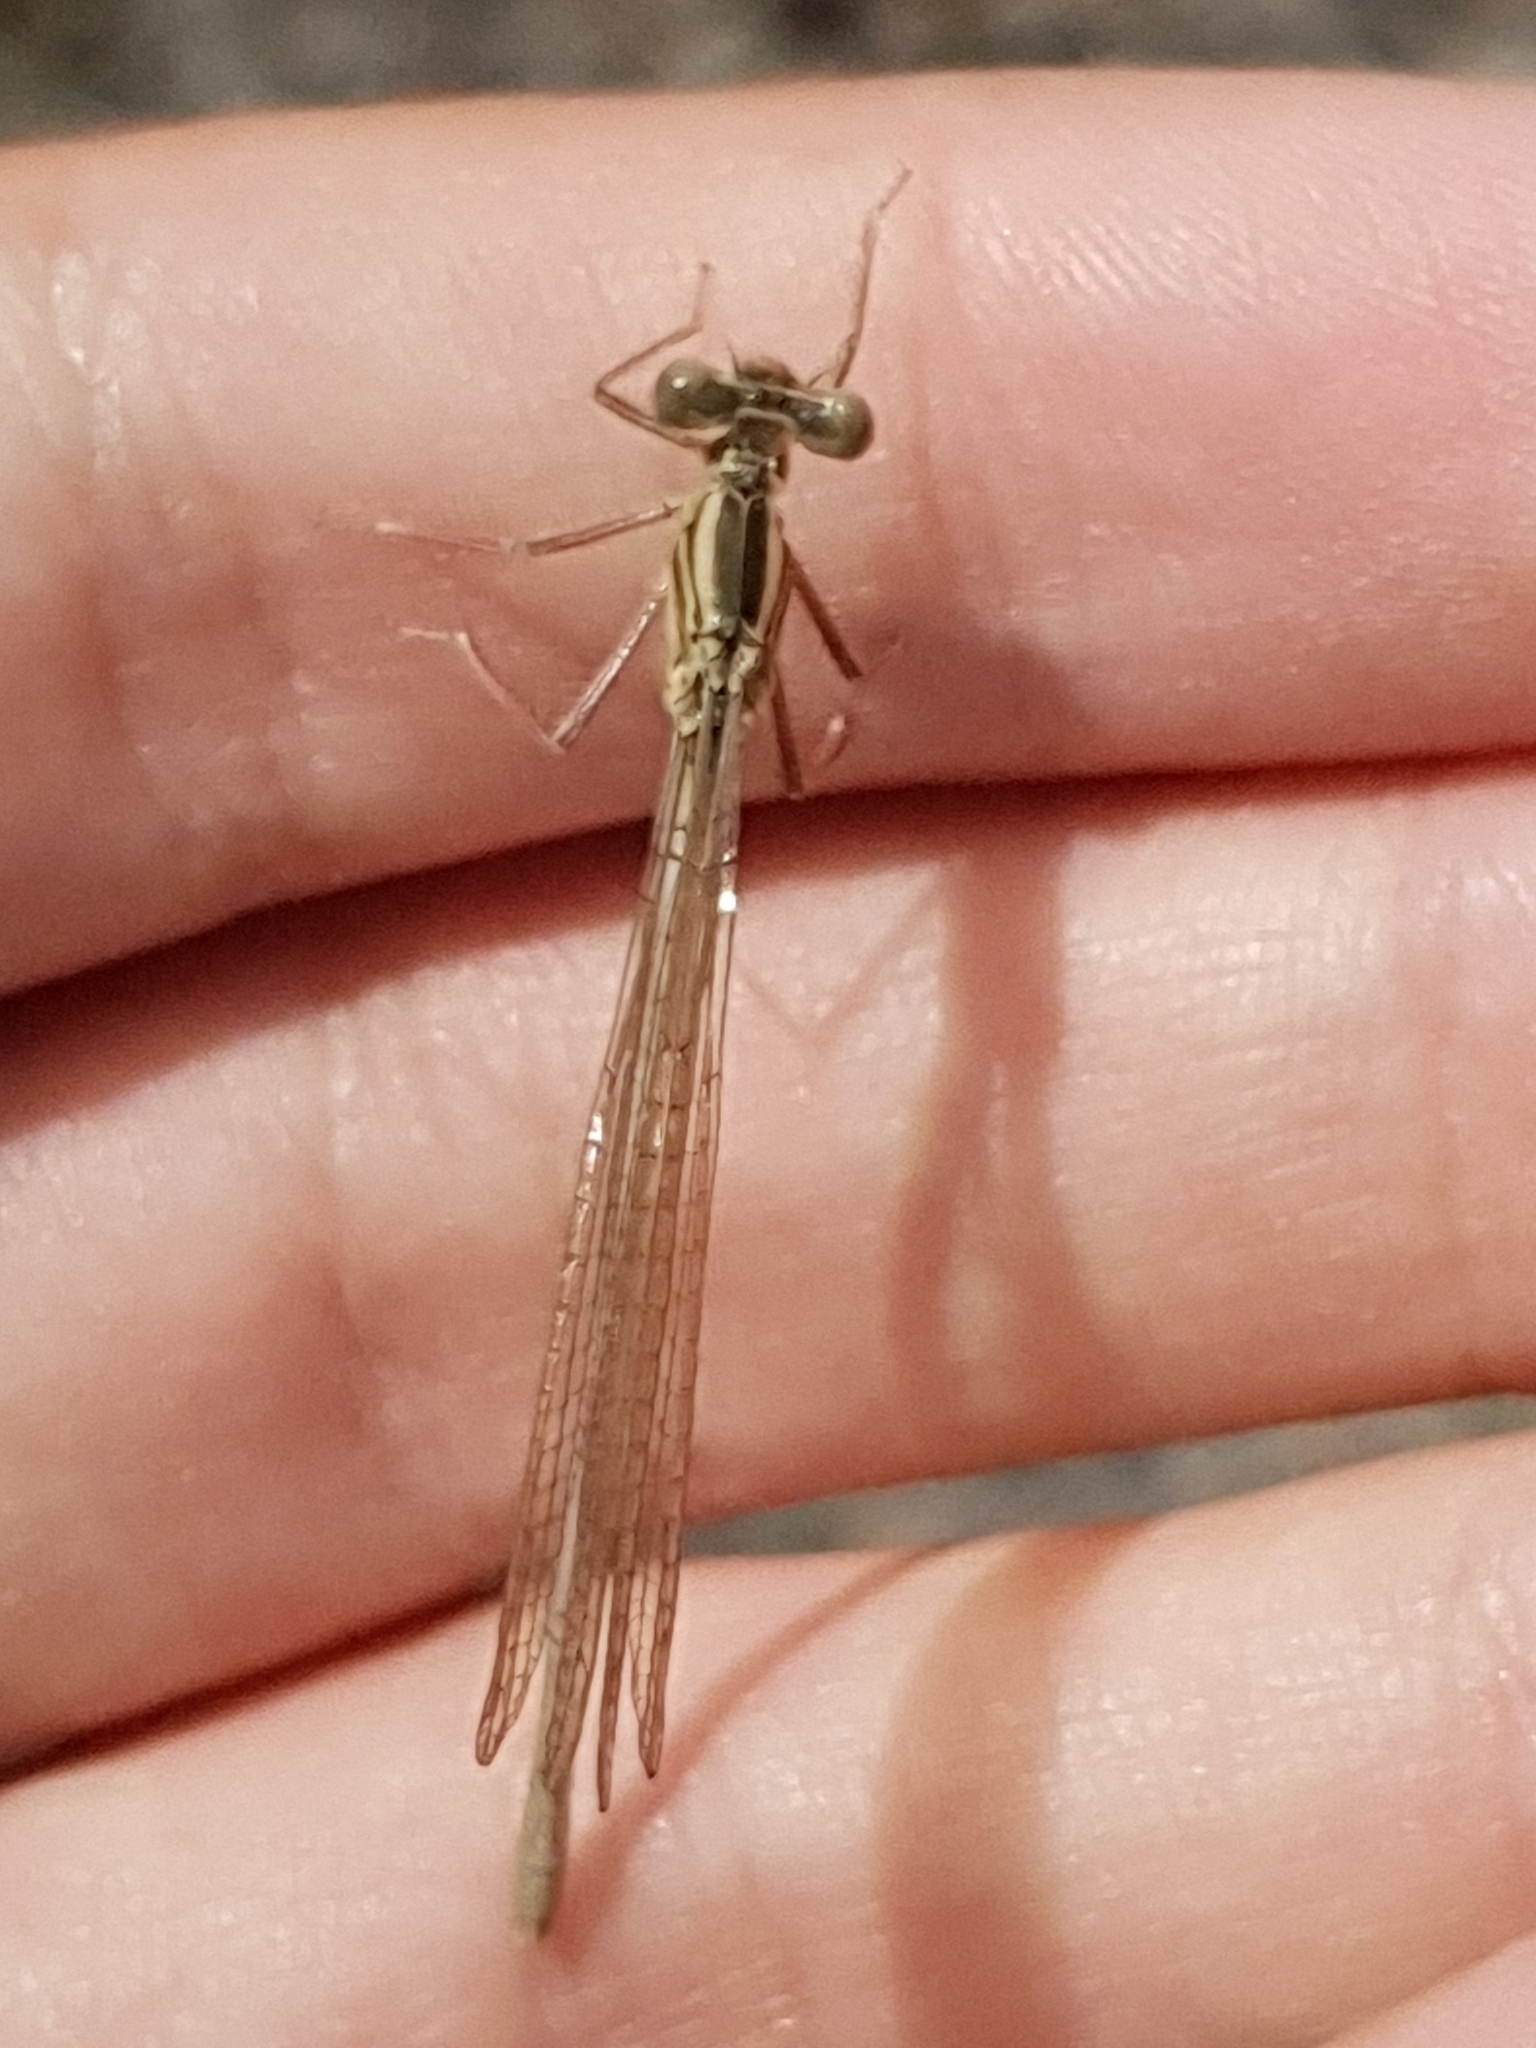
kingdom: Animalia
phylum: Arthropoda
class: Insecta
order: Odonata
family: Platycnemididae
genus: Platycnemis
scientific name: Platycnemis pennipes
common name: White-legged damselfly
